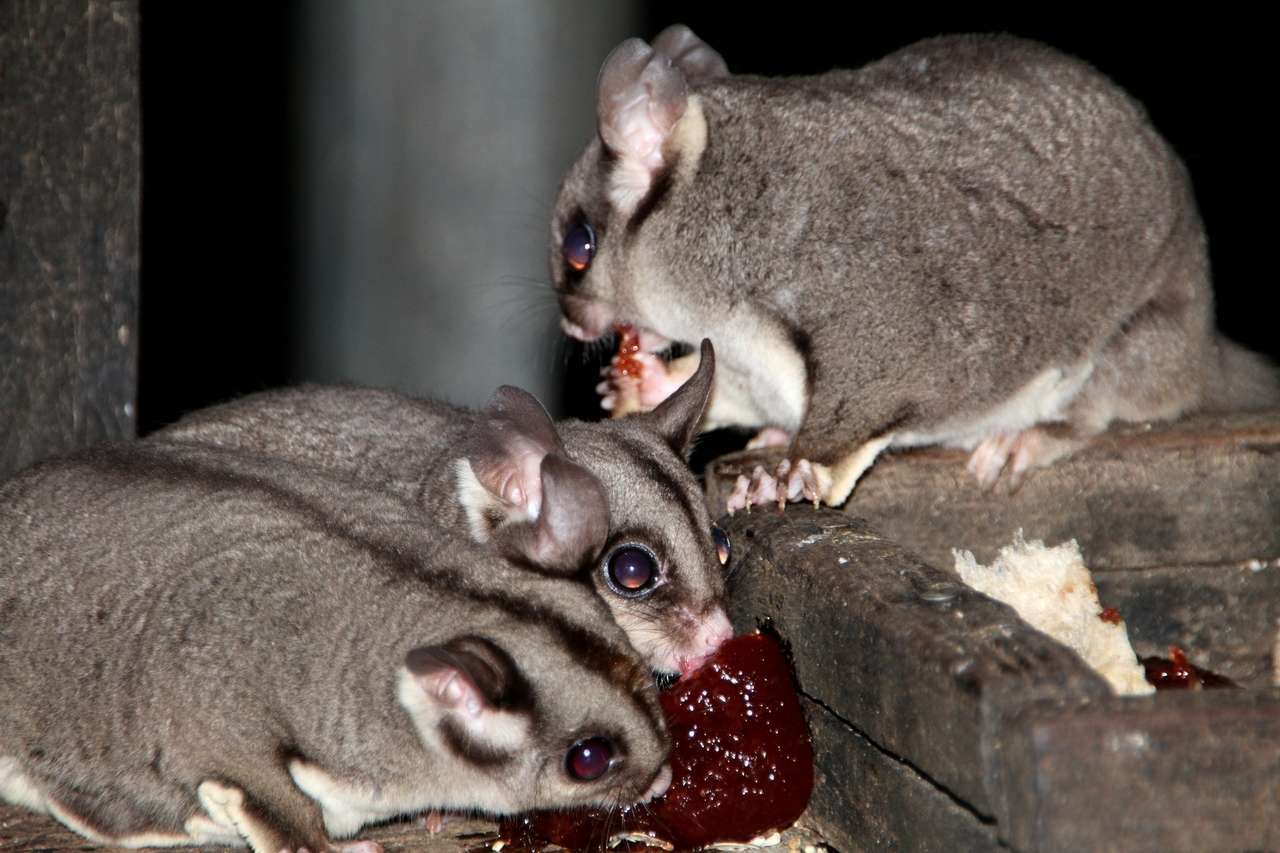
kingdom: Animalia
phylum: Chordata
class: Mammalia
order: Diprotodontia
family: Petauridae
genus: Petaurus
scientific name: Petaurus breviceps
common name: Sugar glider
